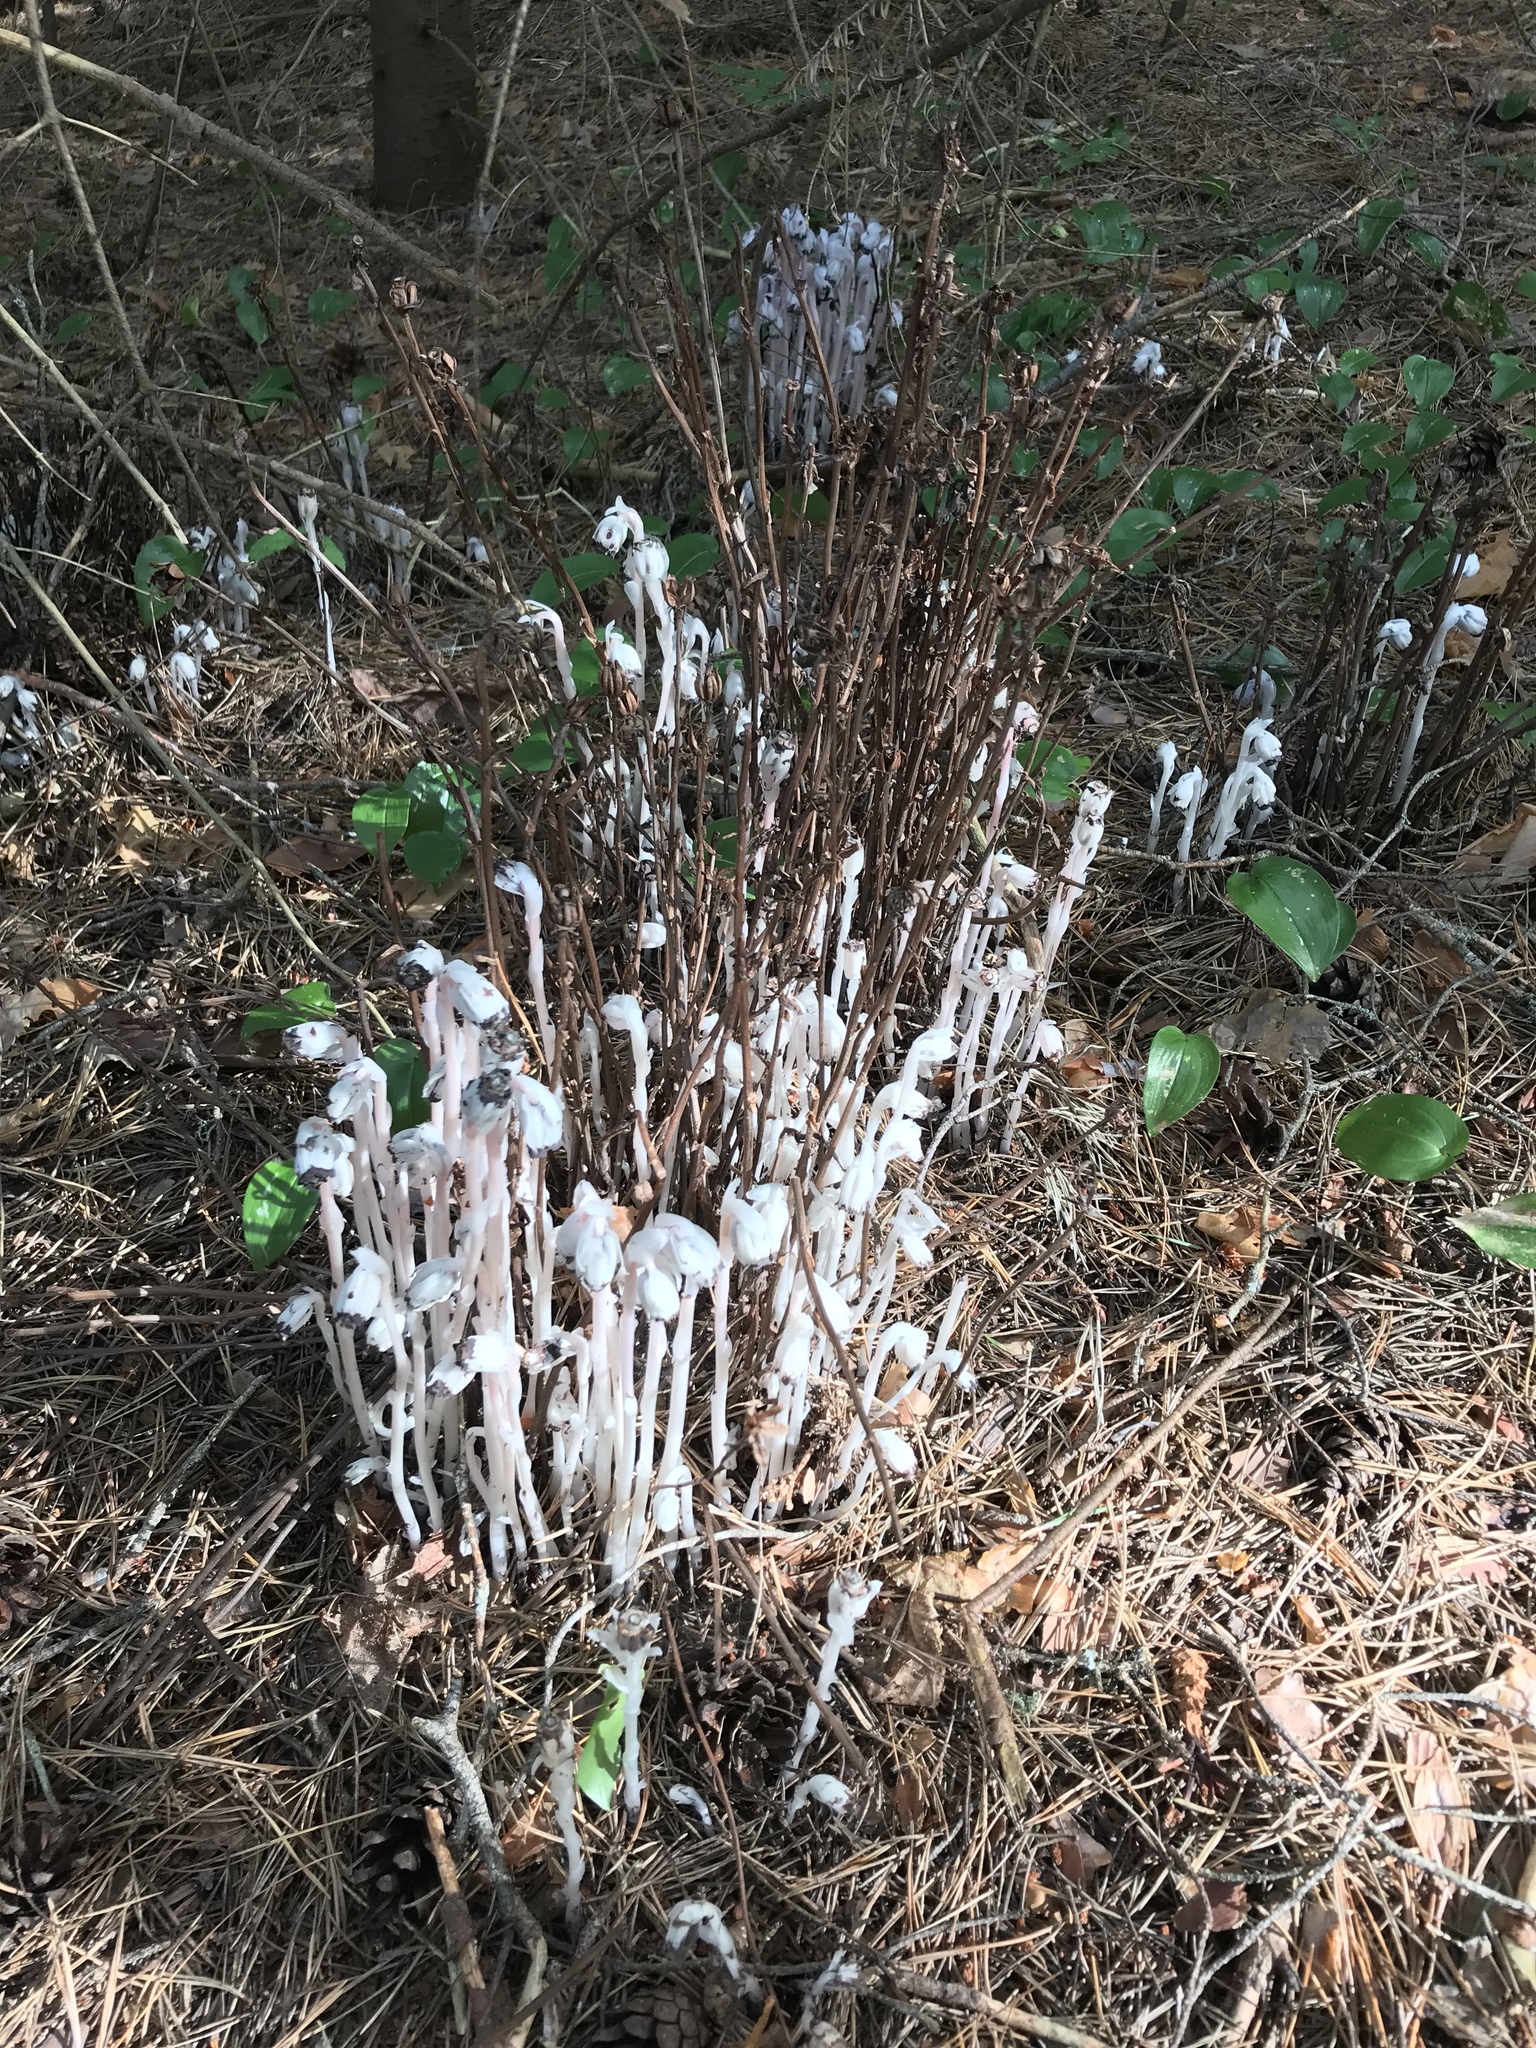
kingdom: Plantae
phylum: Tracheophyta
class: Magnoliopsida
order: Ericales
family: Ericaceae
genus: Monotropa
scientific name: Monotropa uniflora
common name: Convulsion root
